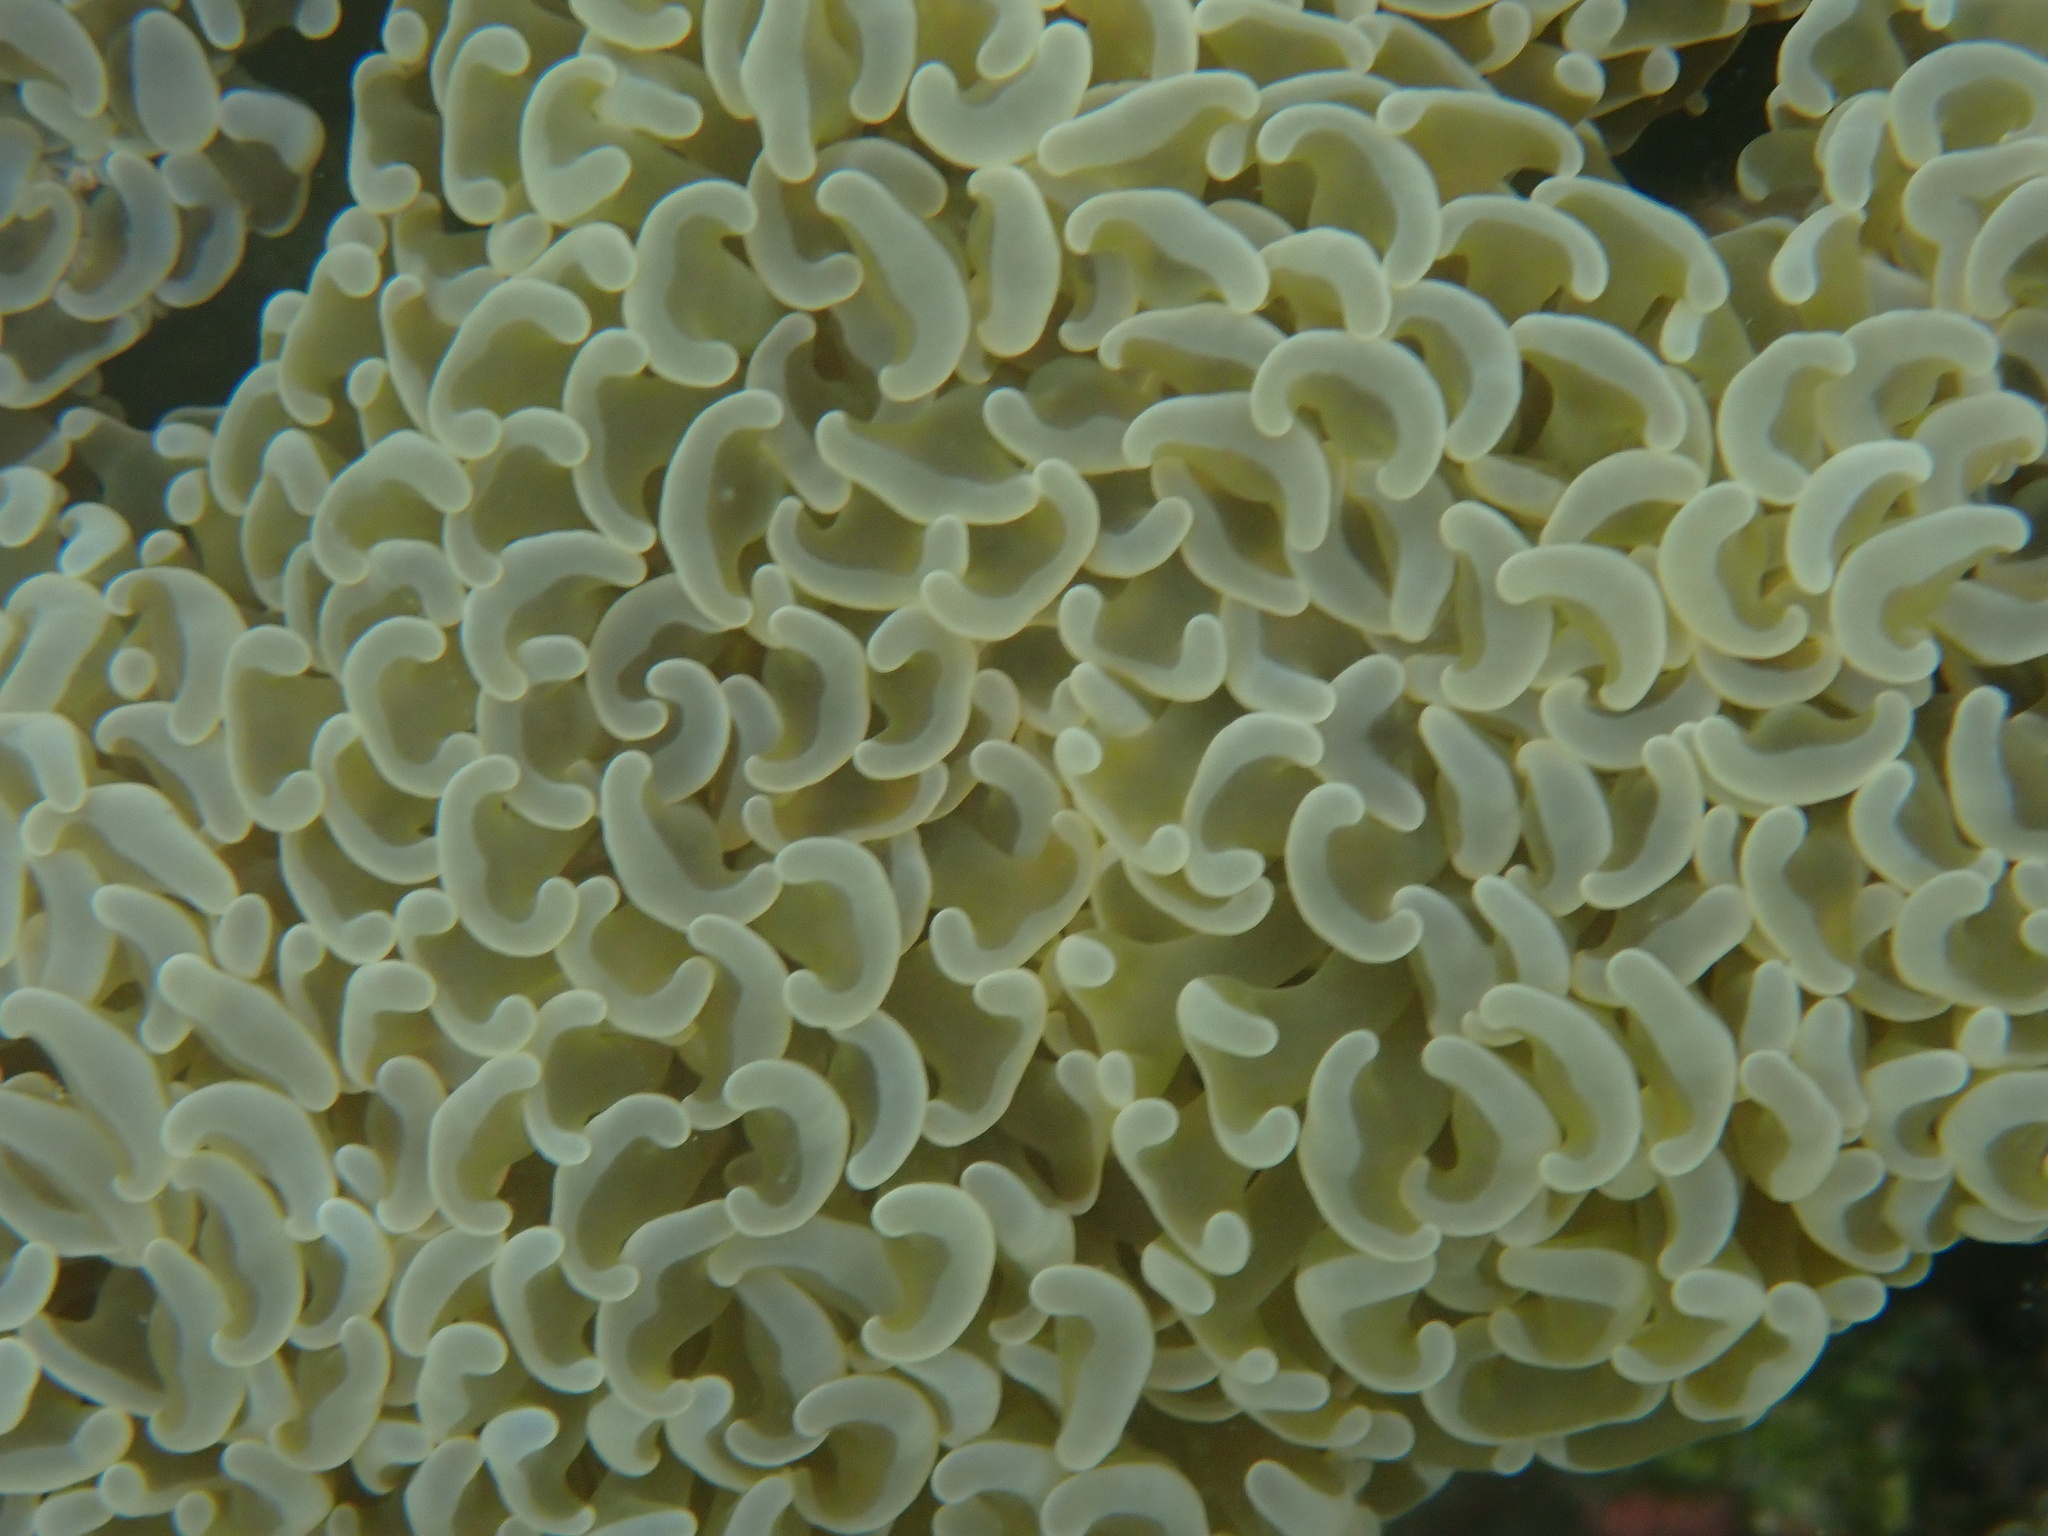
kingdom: Animalia
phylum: Cnidaria
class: Anthozoa
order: Scleractinia
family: Euphylliidae
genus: Fimbriaphyllia
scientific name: Fimbriaphyllia ancora
